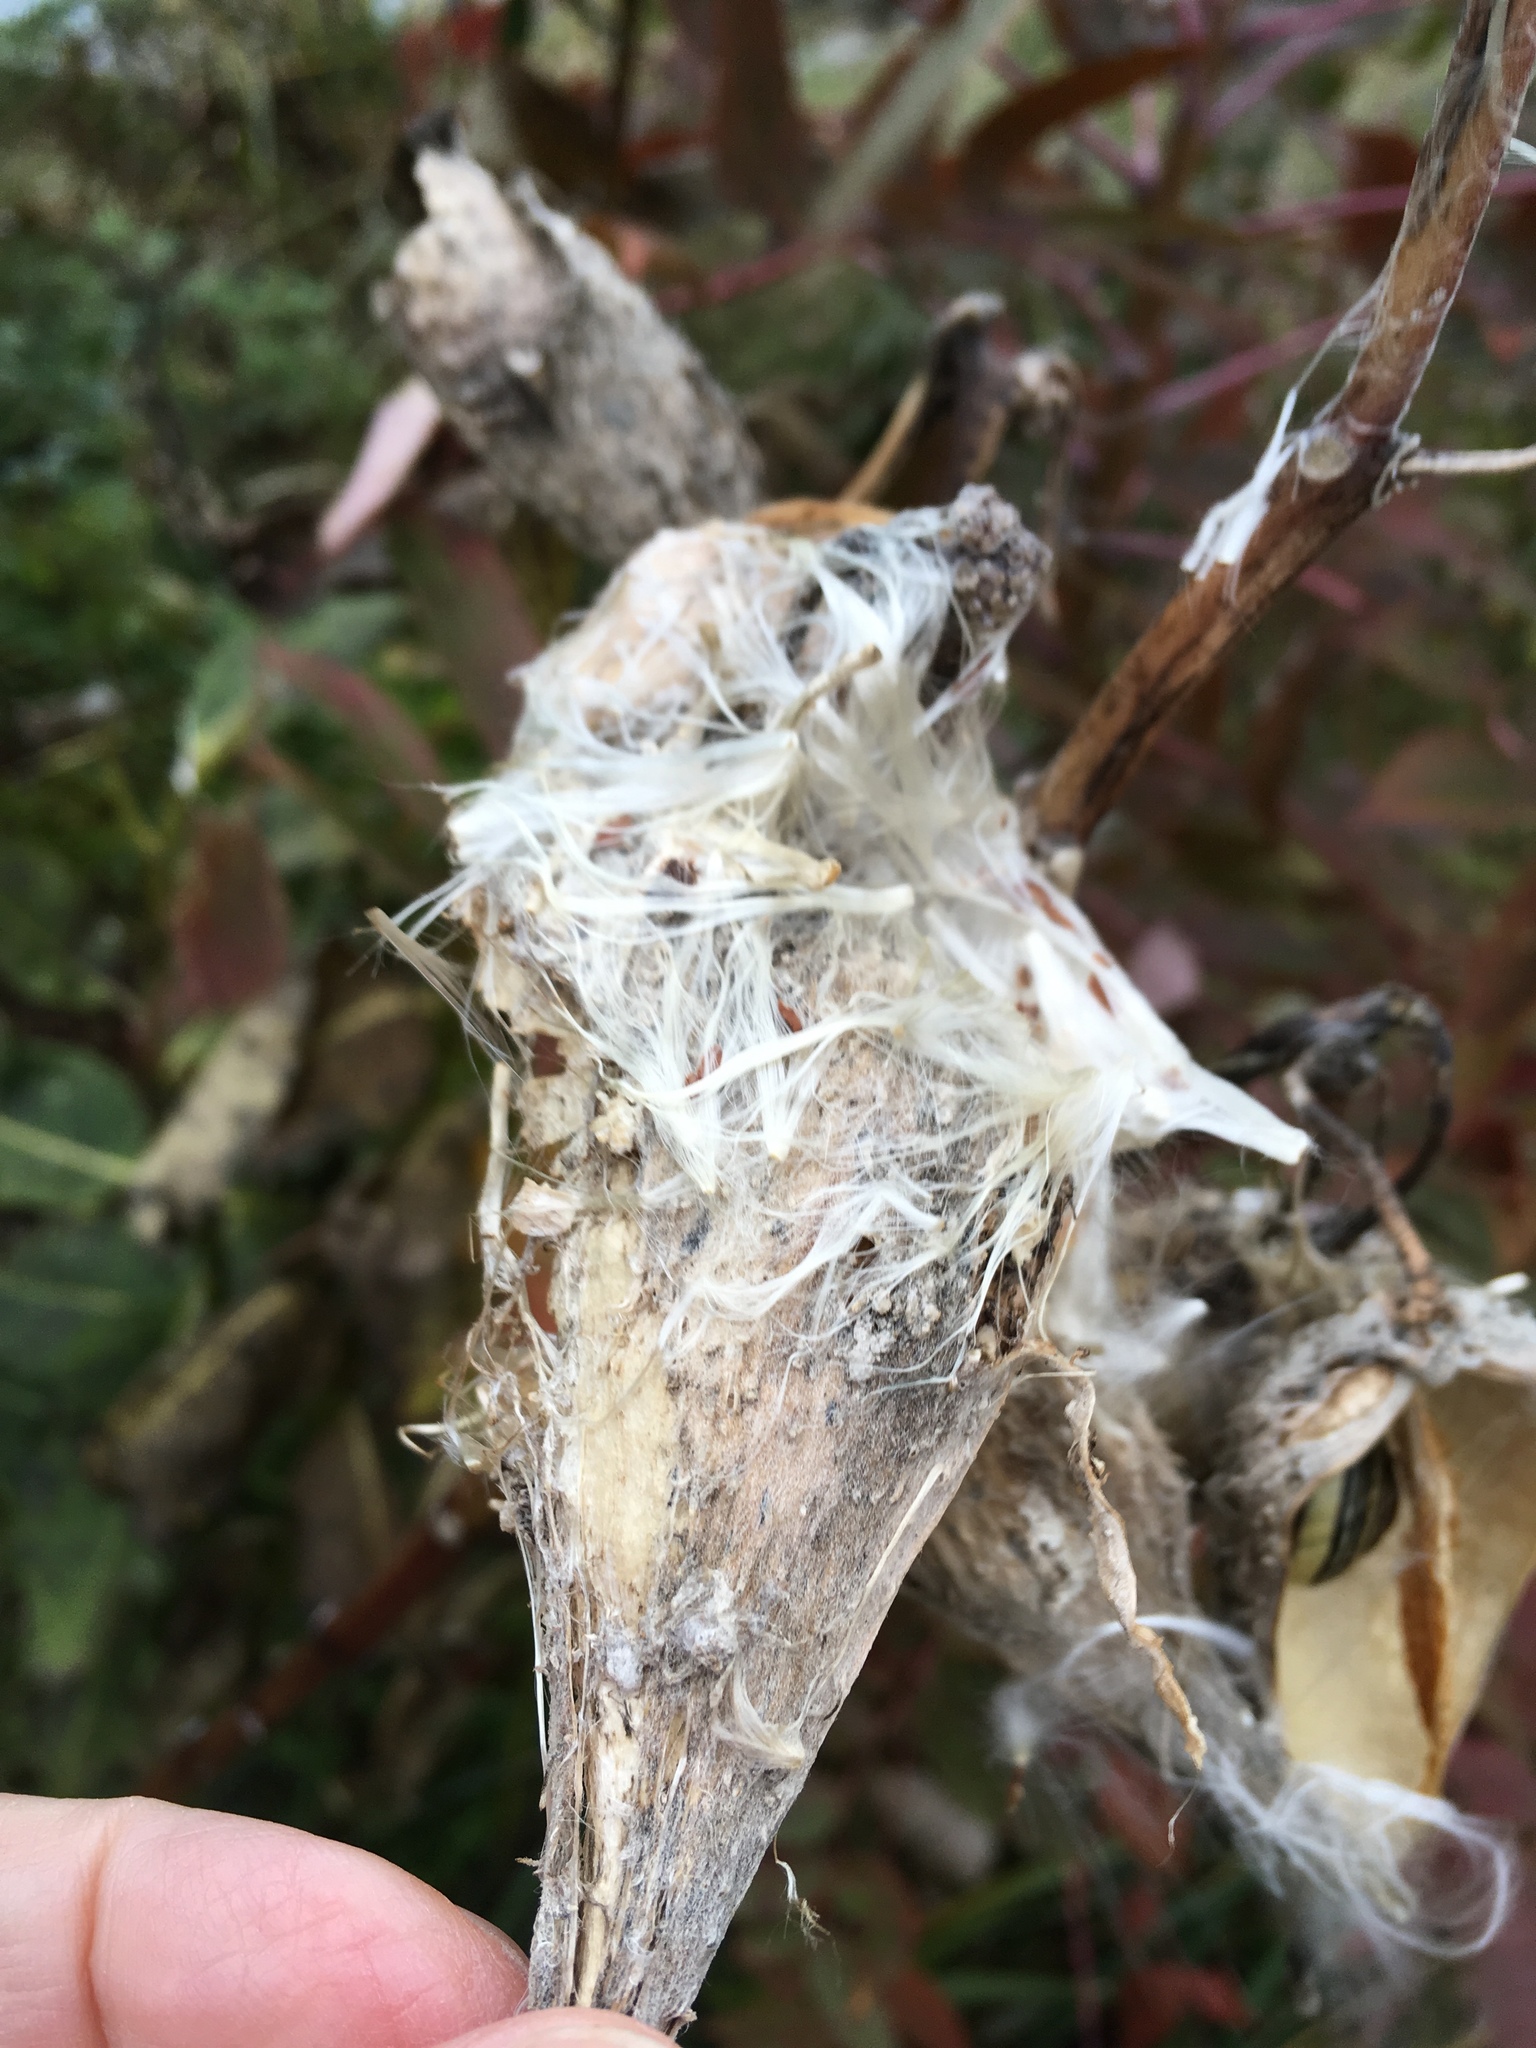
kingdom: Plantae
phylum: Tracheophyta
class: Magnoliopsida
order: Gentianales
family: Apocynaceae
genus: Asclepias
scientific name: Asclepias syriaca
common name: Common milkweed
